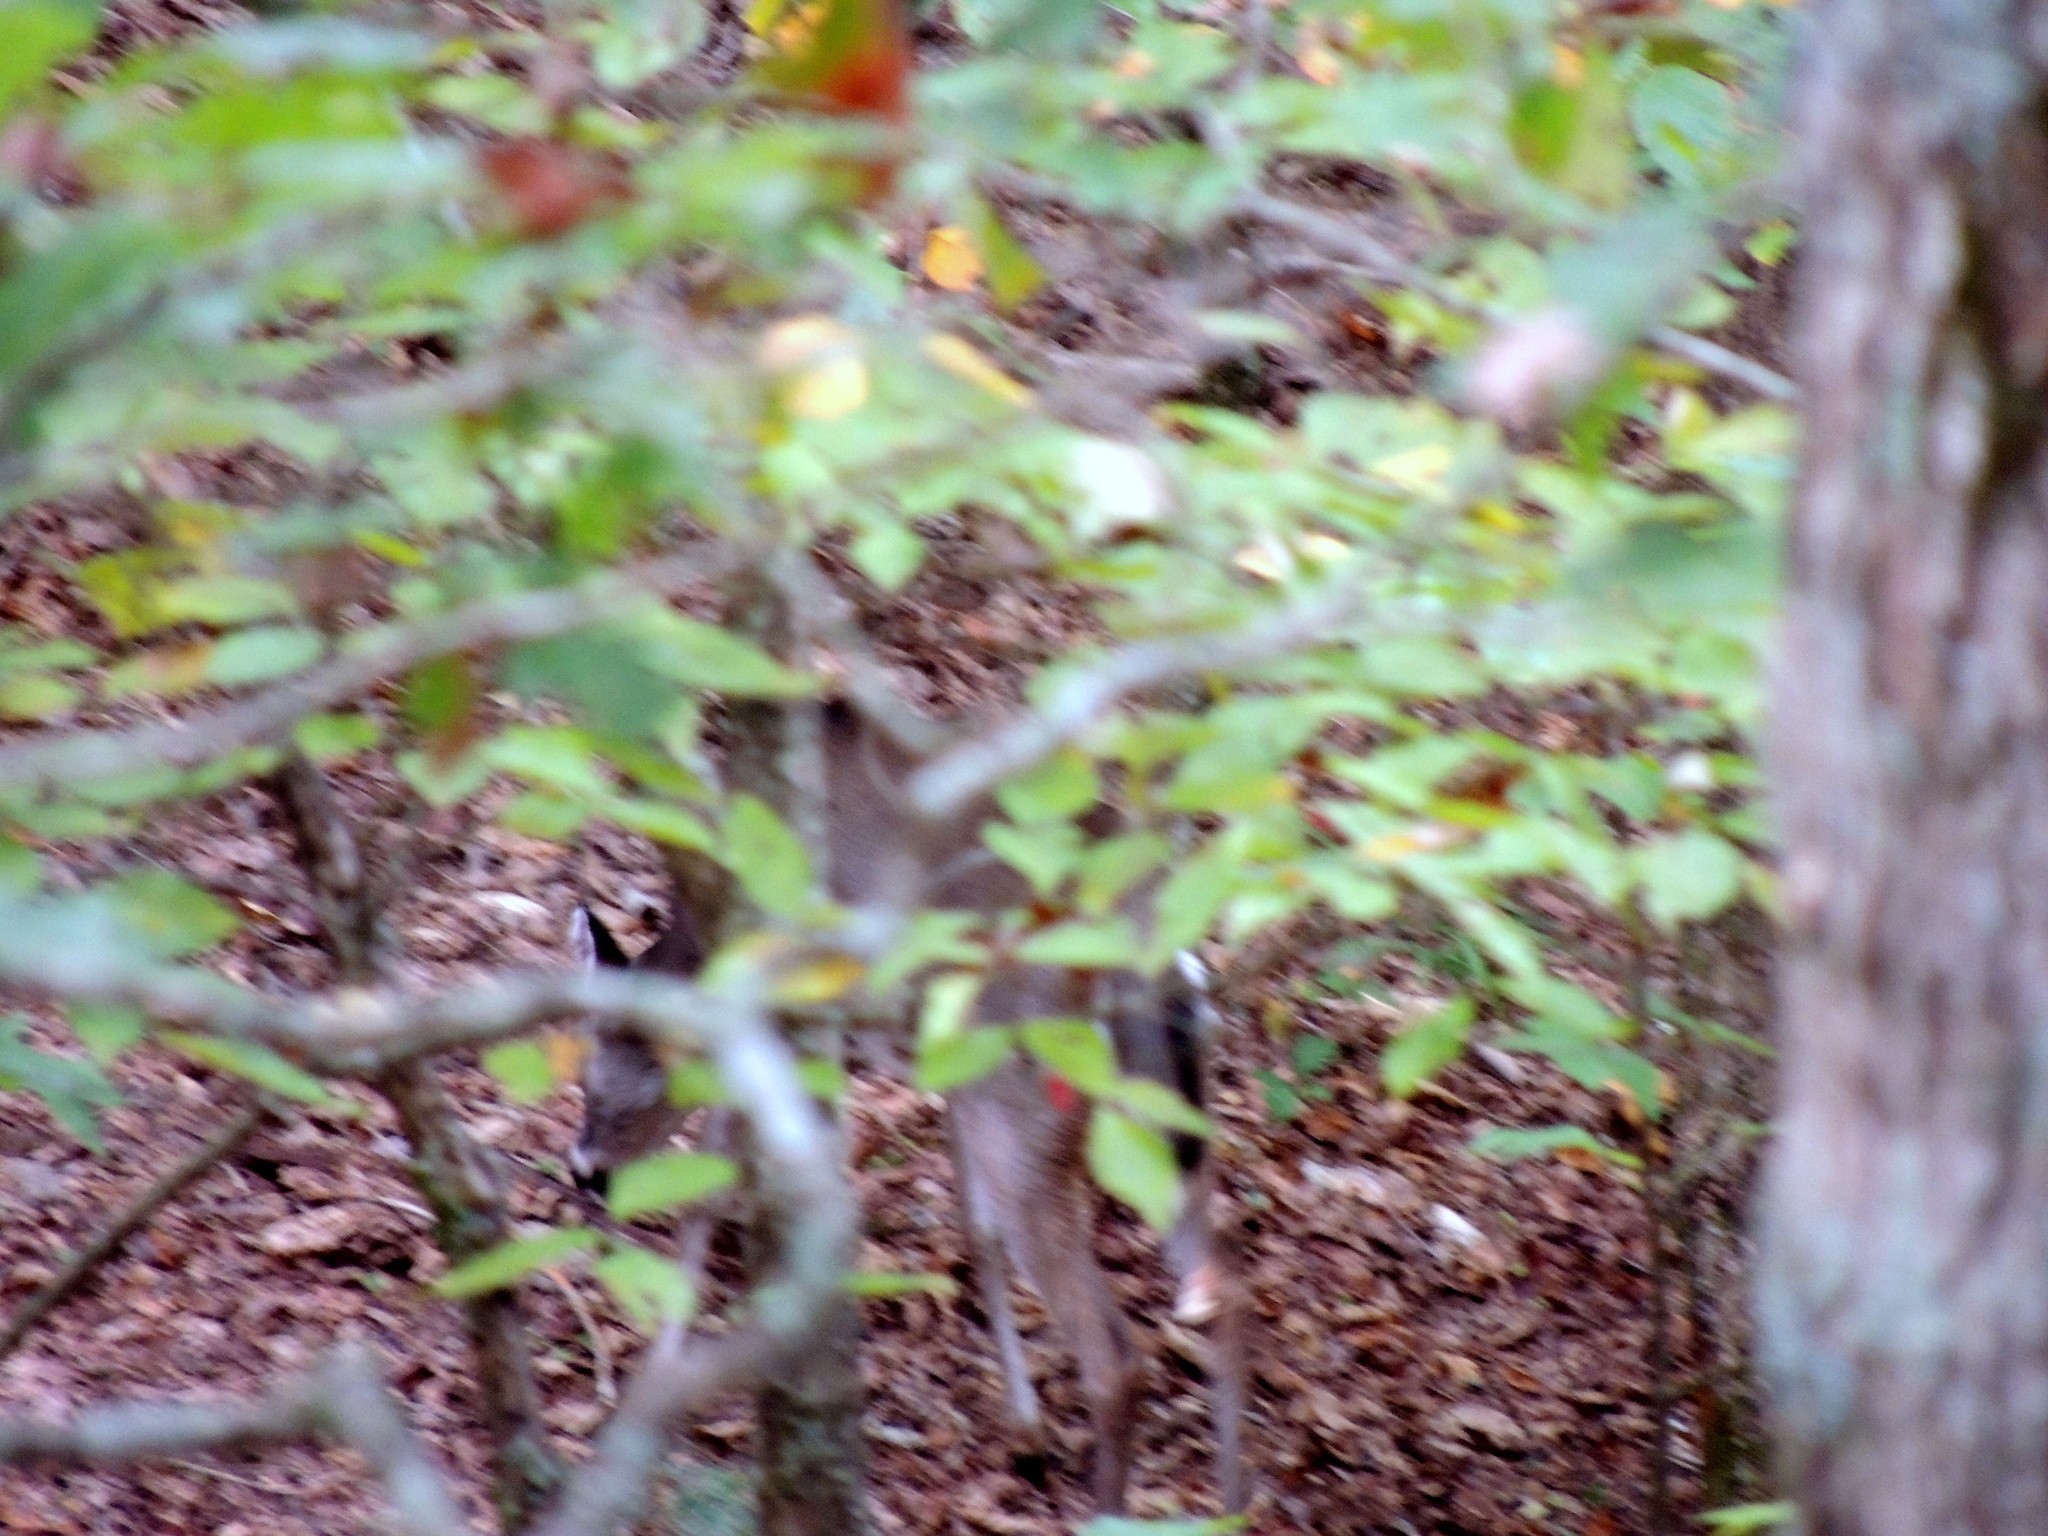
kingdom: Animalia
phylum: Chordata
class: Mammalia
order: Artiodactyla
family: Cervidae
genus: Odocoileus
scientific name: Odocoileus virginianus
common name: White-tailed deer
